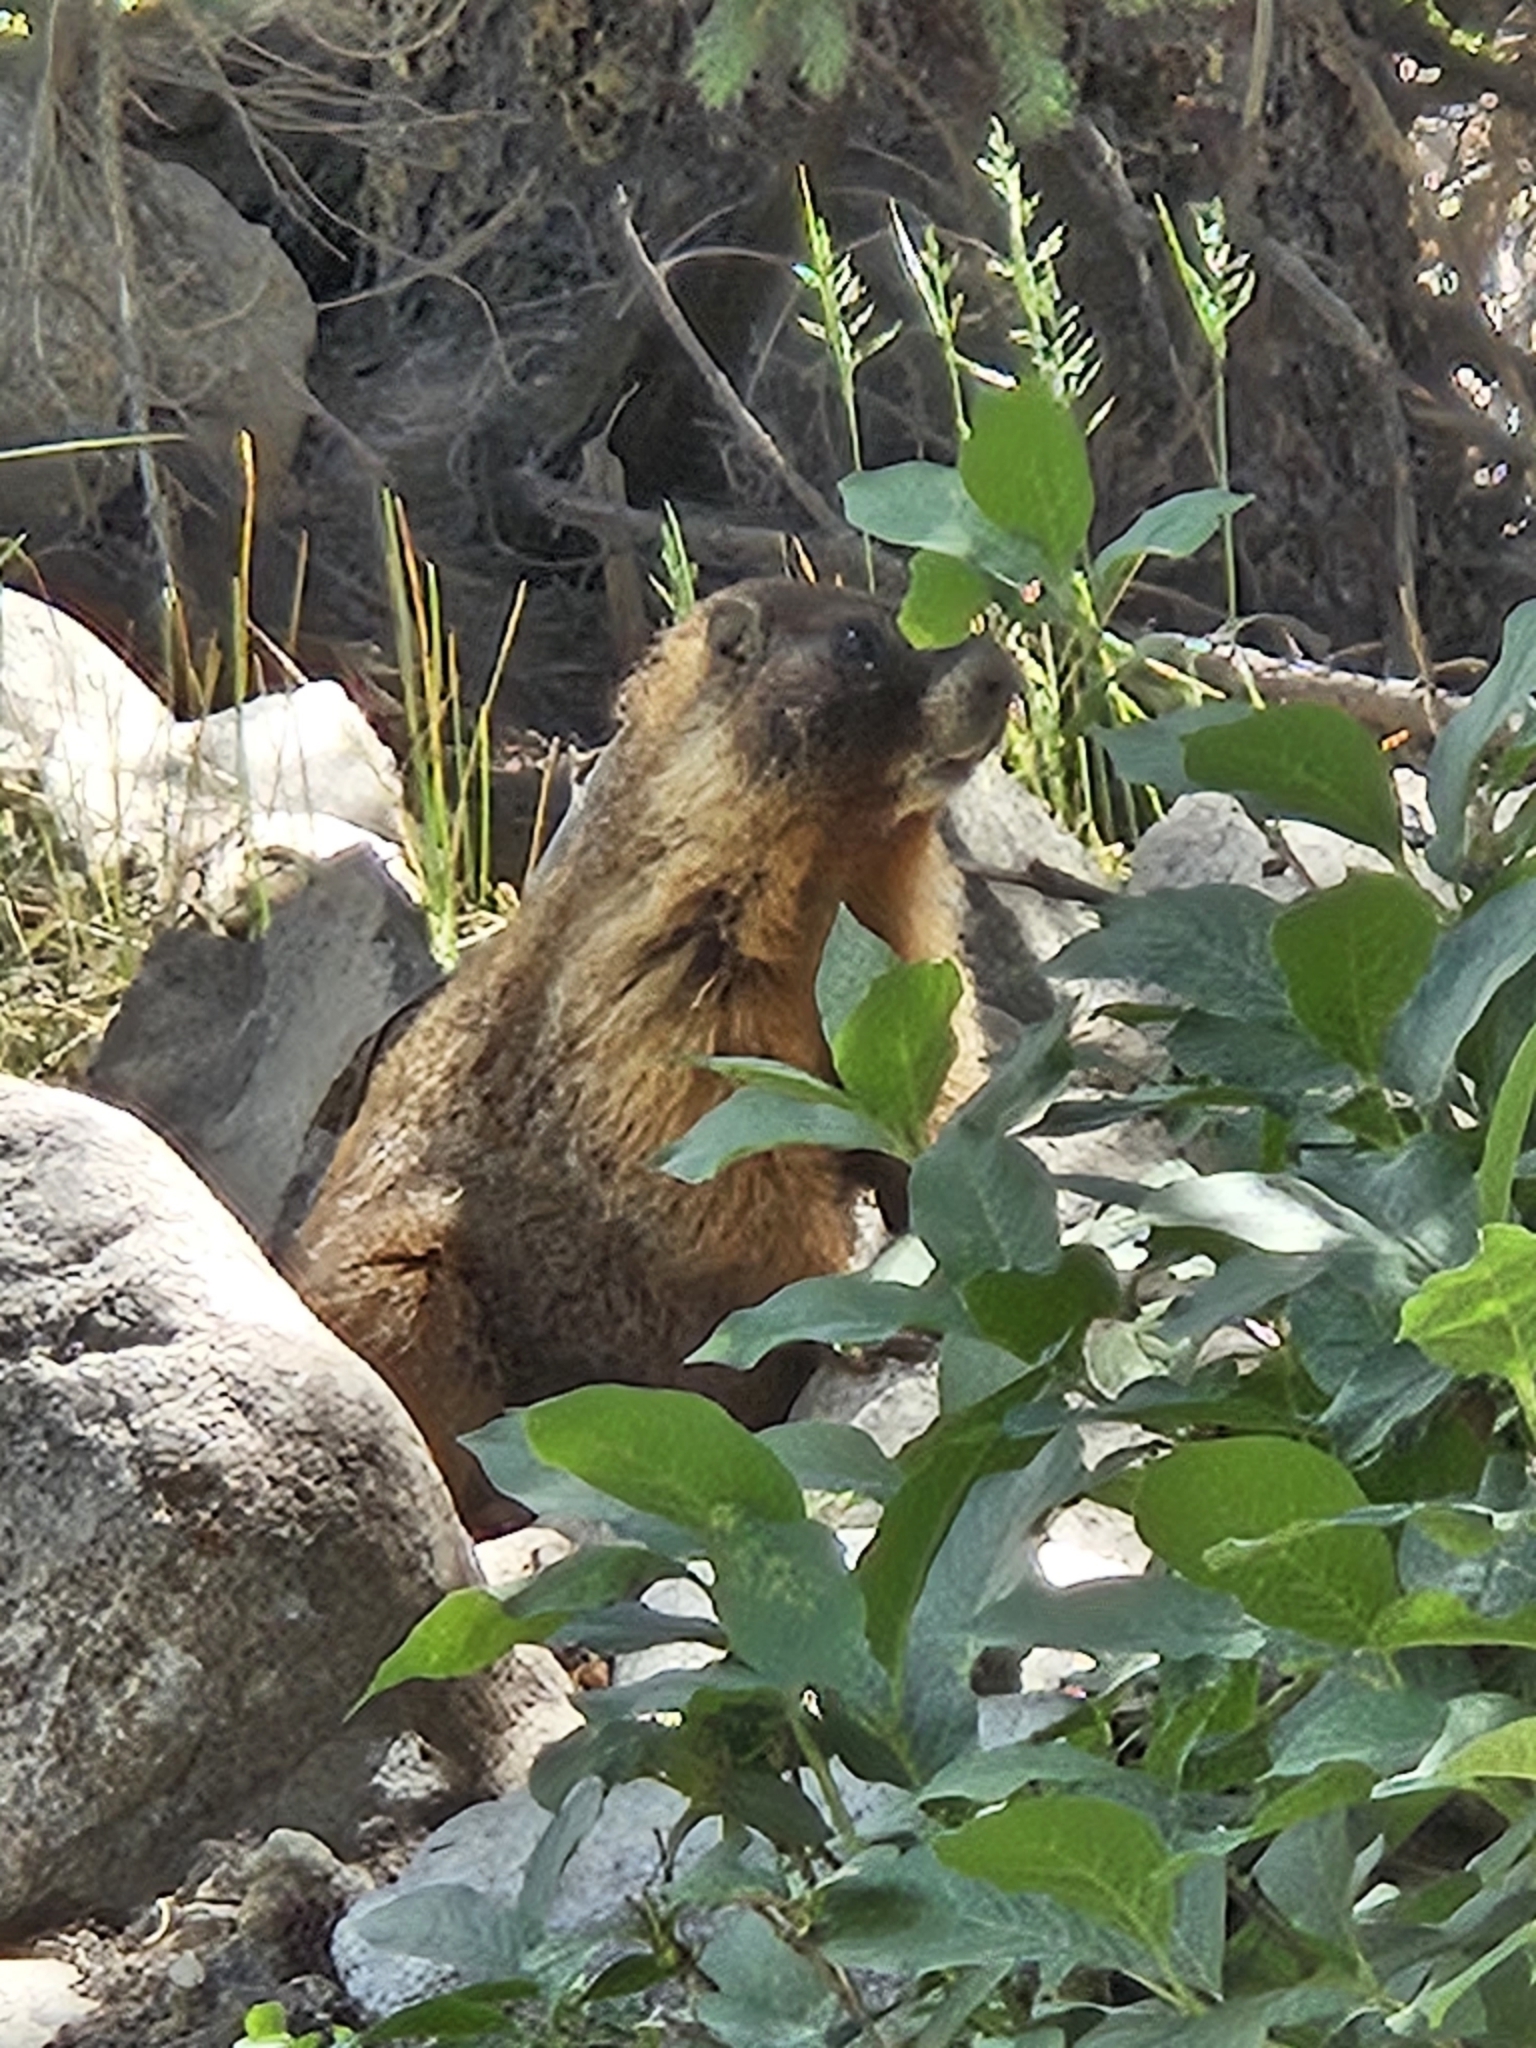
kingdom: Animalia
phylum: Chordata
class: Mammalia
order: Rodentia
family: Sciuridae
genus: Marmota
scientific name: Marmota flaviventris
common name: Yellow-bellied marmot
